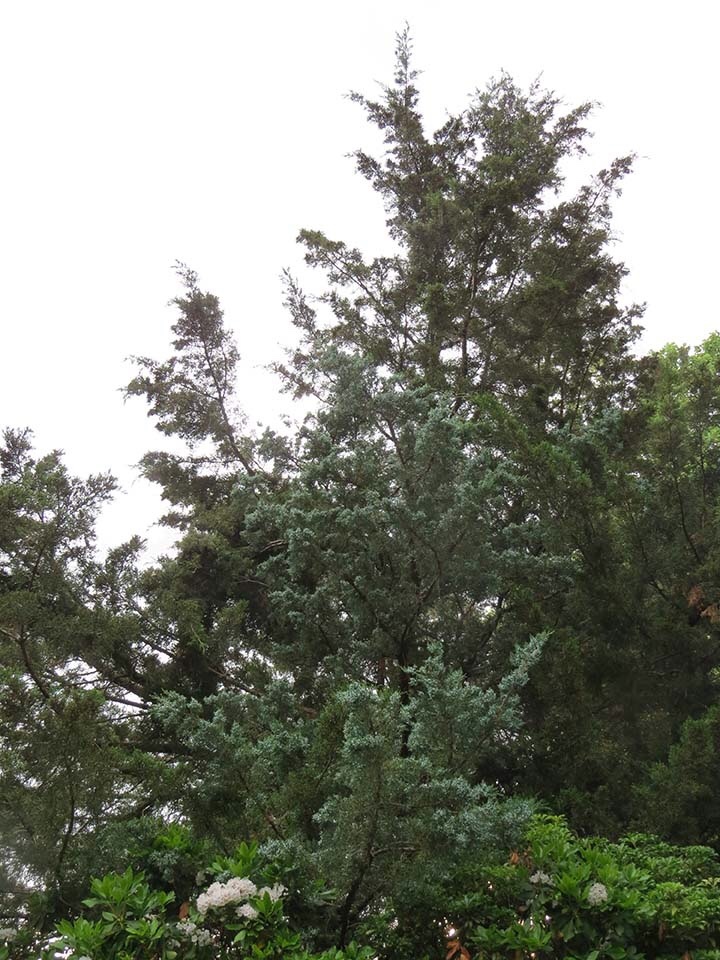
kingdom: Plantae
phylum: Tracheophyta
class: Pinopsida
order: Pinales
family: Cupressaceae
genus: Juniperus
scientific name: Juniperus virginiana
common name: Red juniper
